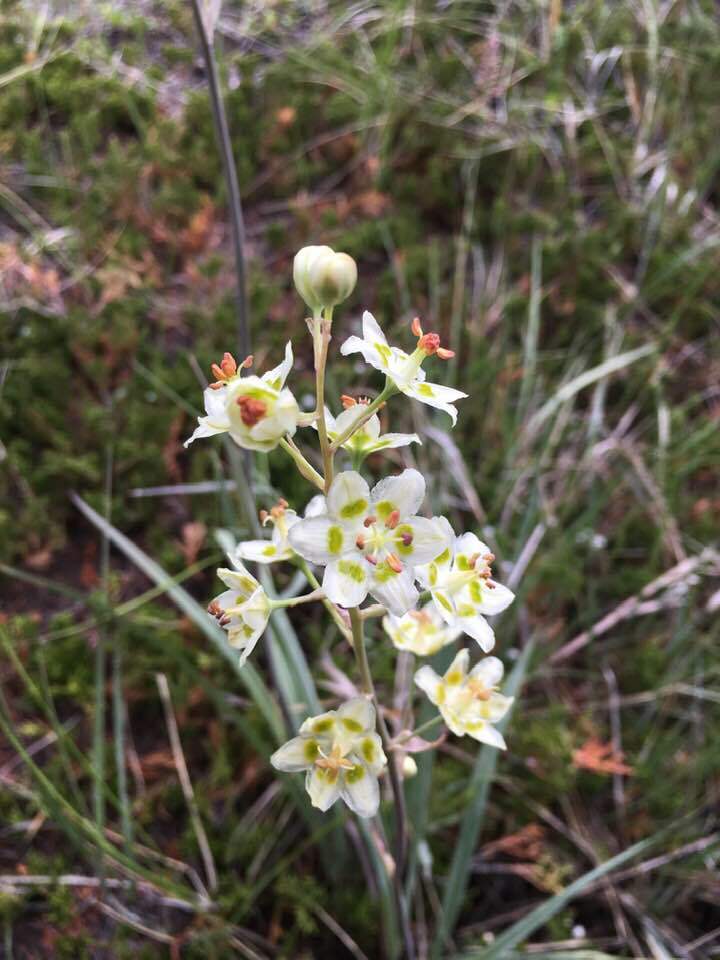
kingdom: Plantae
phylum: Tracheophyta
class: Liliopsida
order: Liliales
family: Melanthiaceae
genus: Anticlea
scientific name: Anticlea elegans
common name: Mountain death camas
